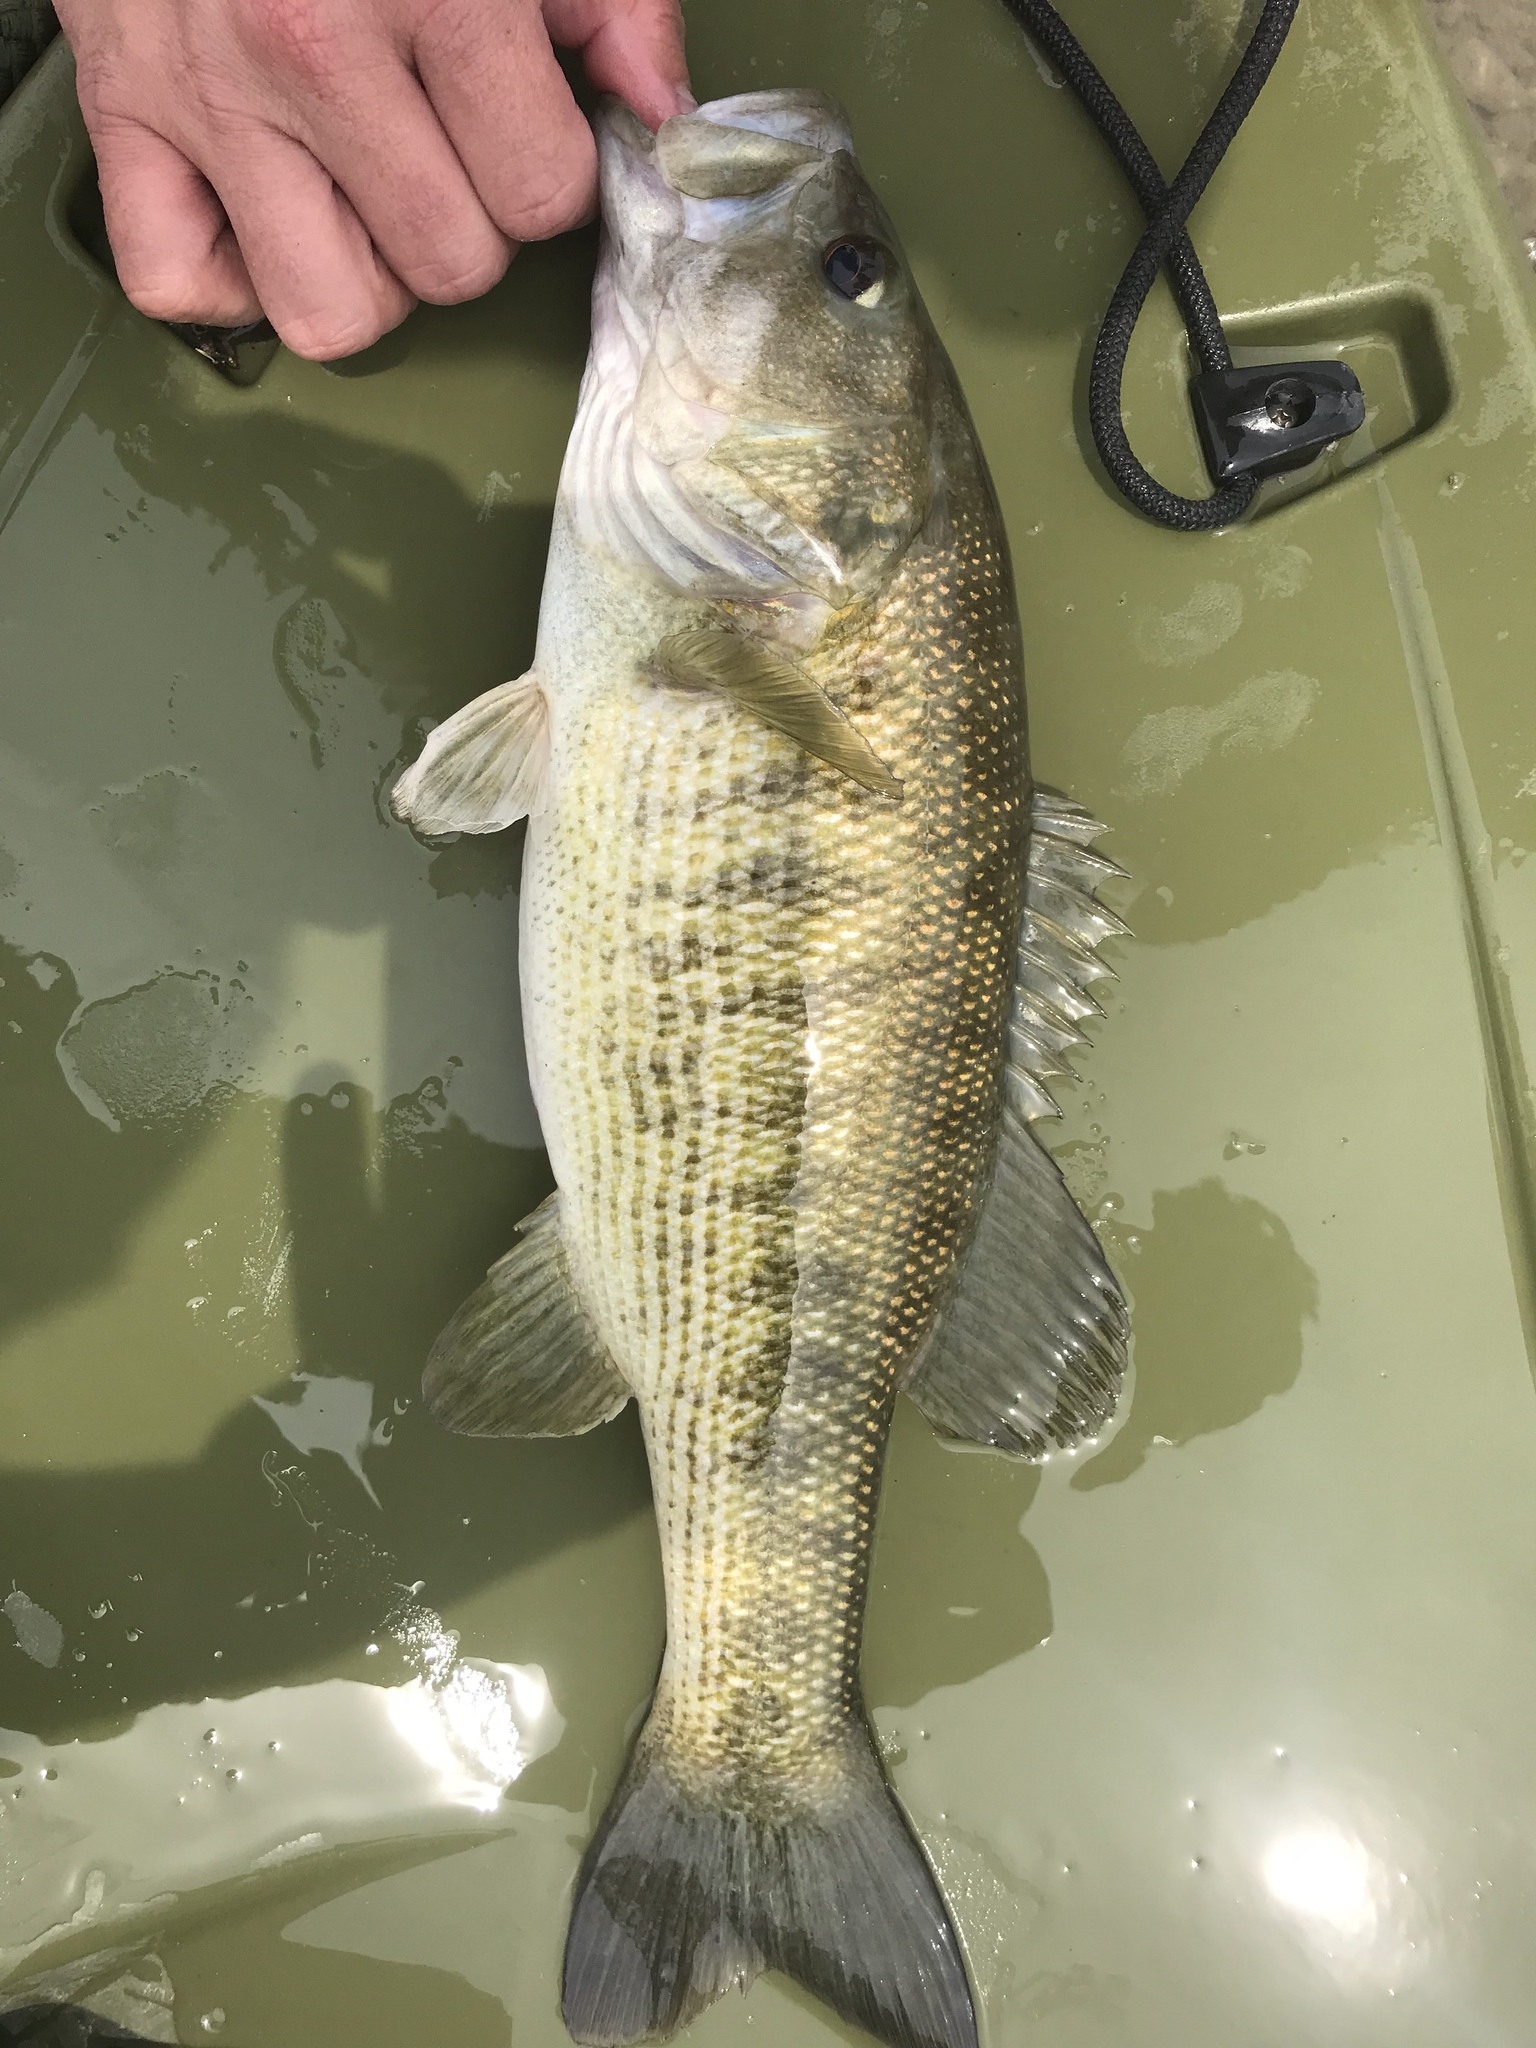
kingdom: Animalia
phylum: Chordata
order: Perciformes
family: Centrarchidae
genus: Micropterus
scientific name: Micropterus treculii
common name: Guadalupe bass
